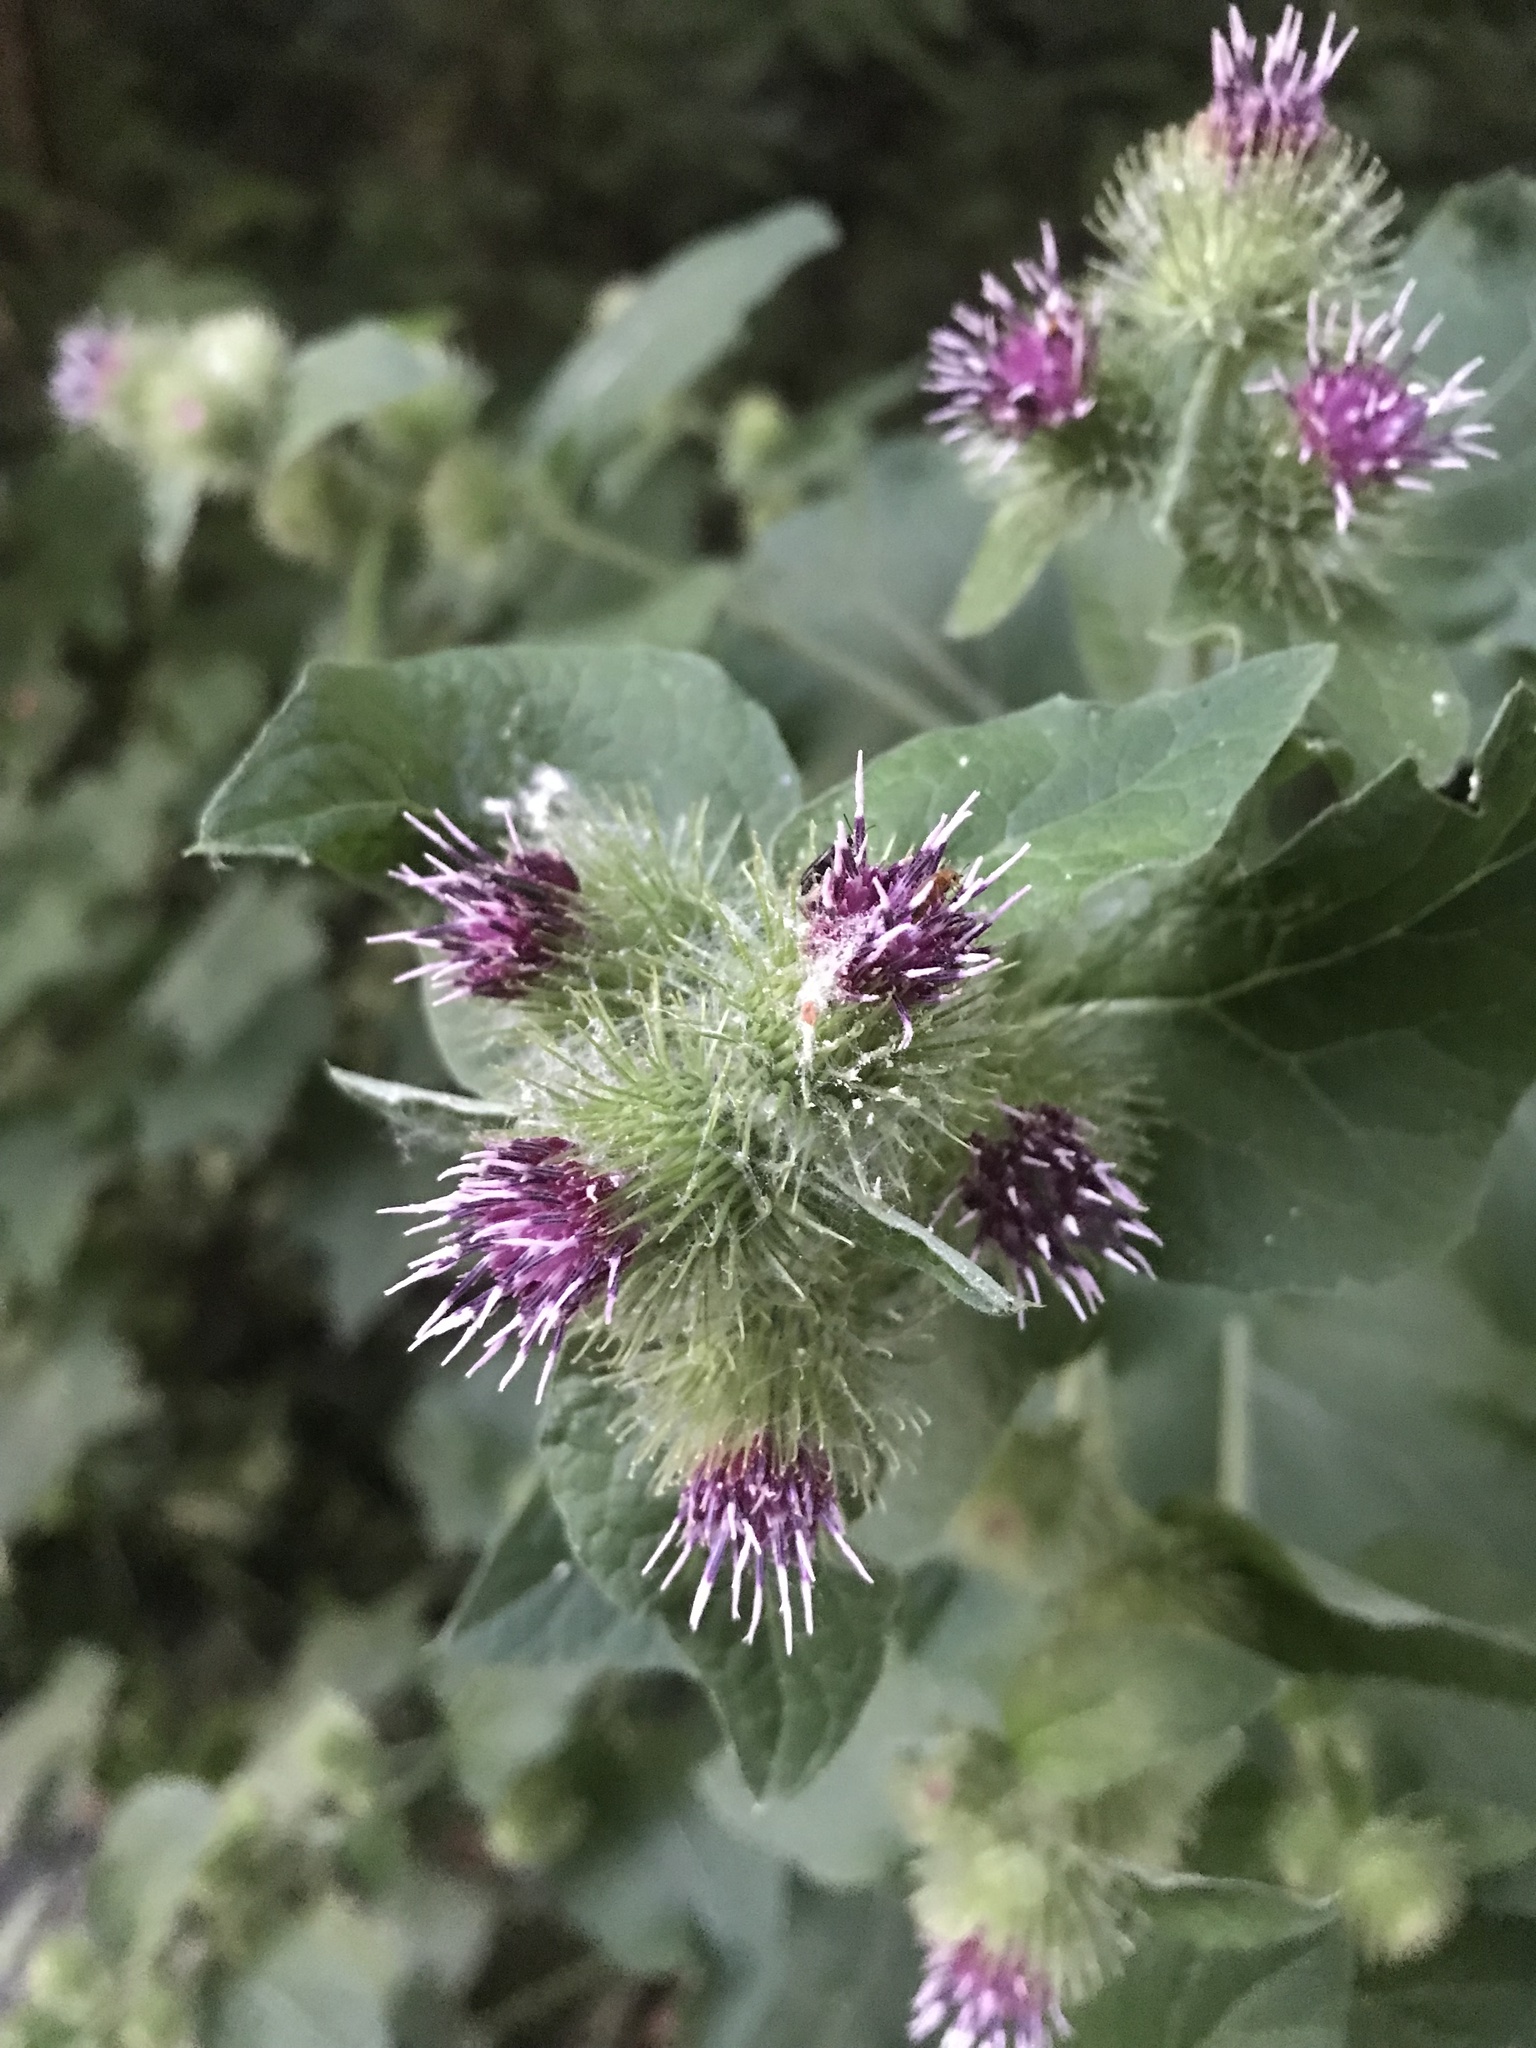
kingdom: Plantae
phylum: Tracheophyta
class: Magnoliopsida
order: Asterales
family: Asteraceae
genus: Arctium
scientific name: Arctium minus
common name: Lesser burdock
